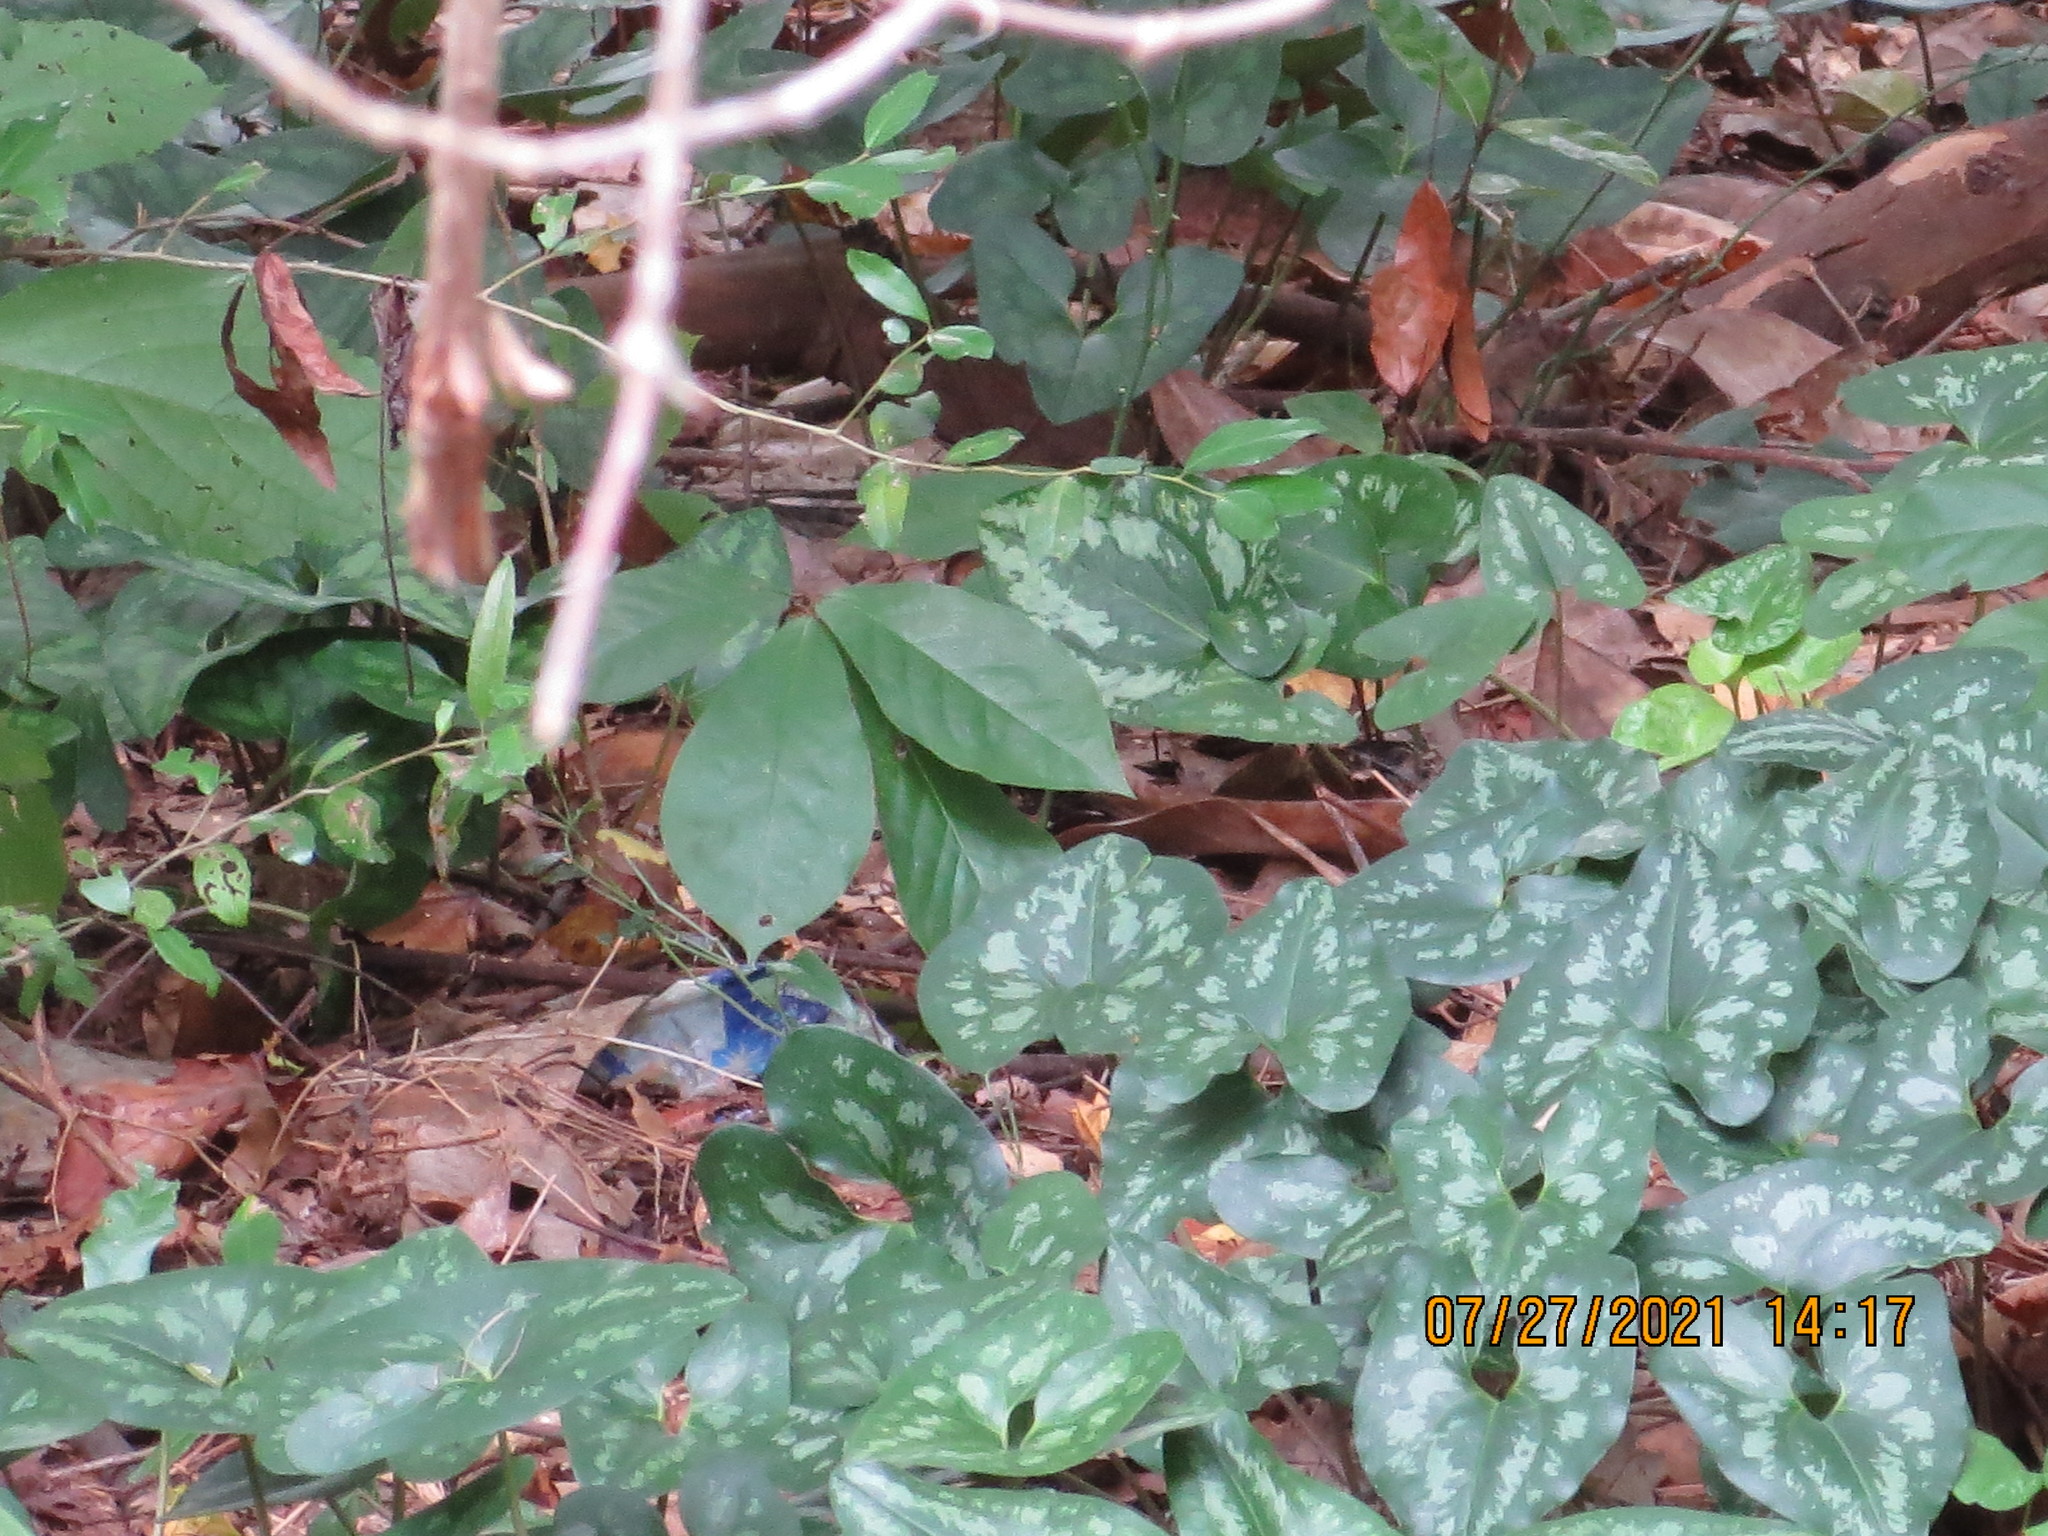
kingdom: Plantae
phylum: Tracheophyta
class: Magnoliopsida
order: Magnoliales
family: Annonaceae
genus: Asimina
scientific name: Asimina parviflora
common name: Dwarf pawpaw
